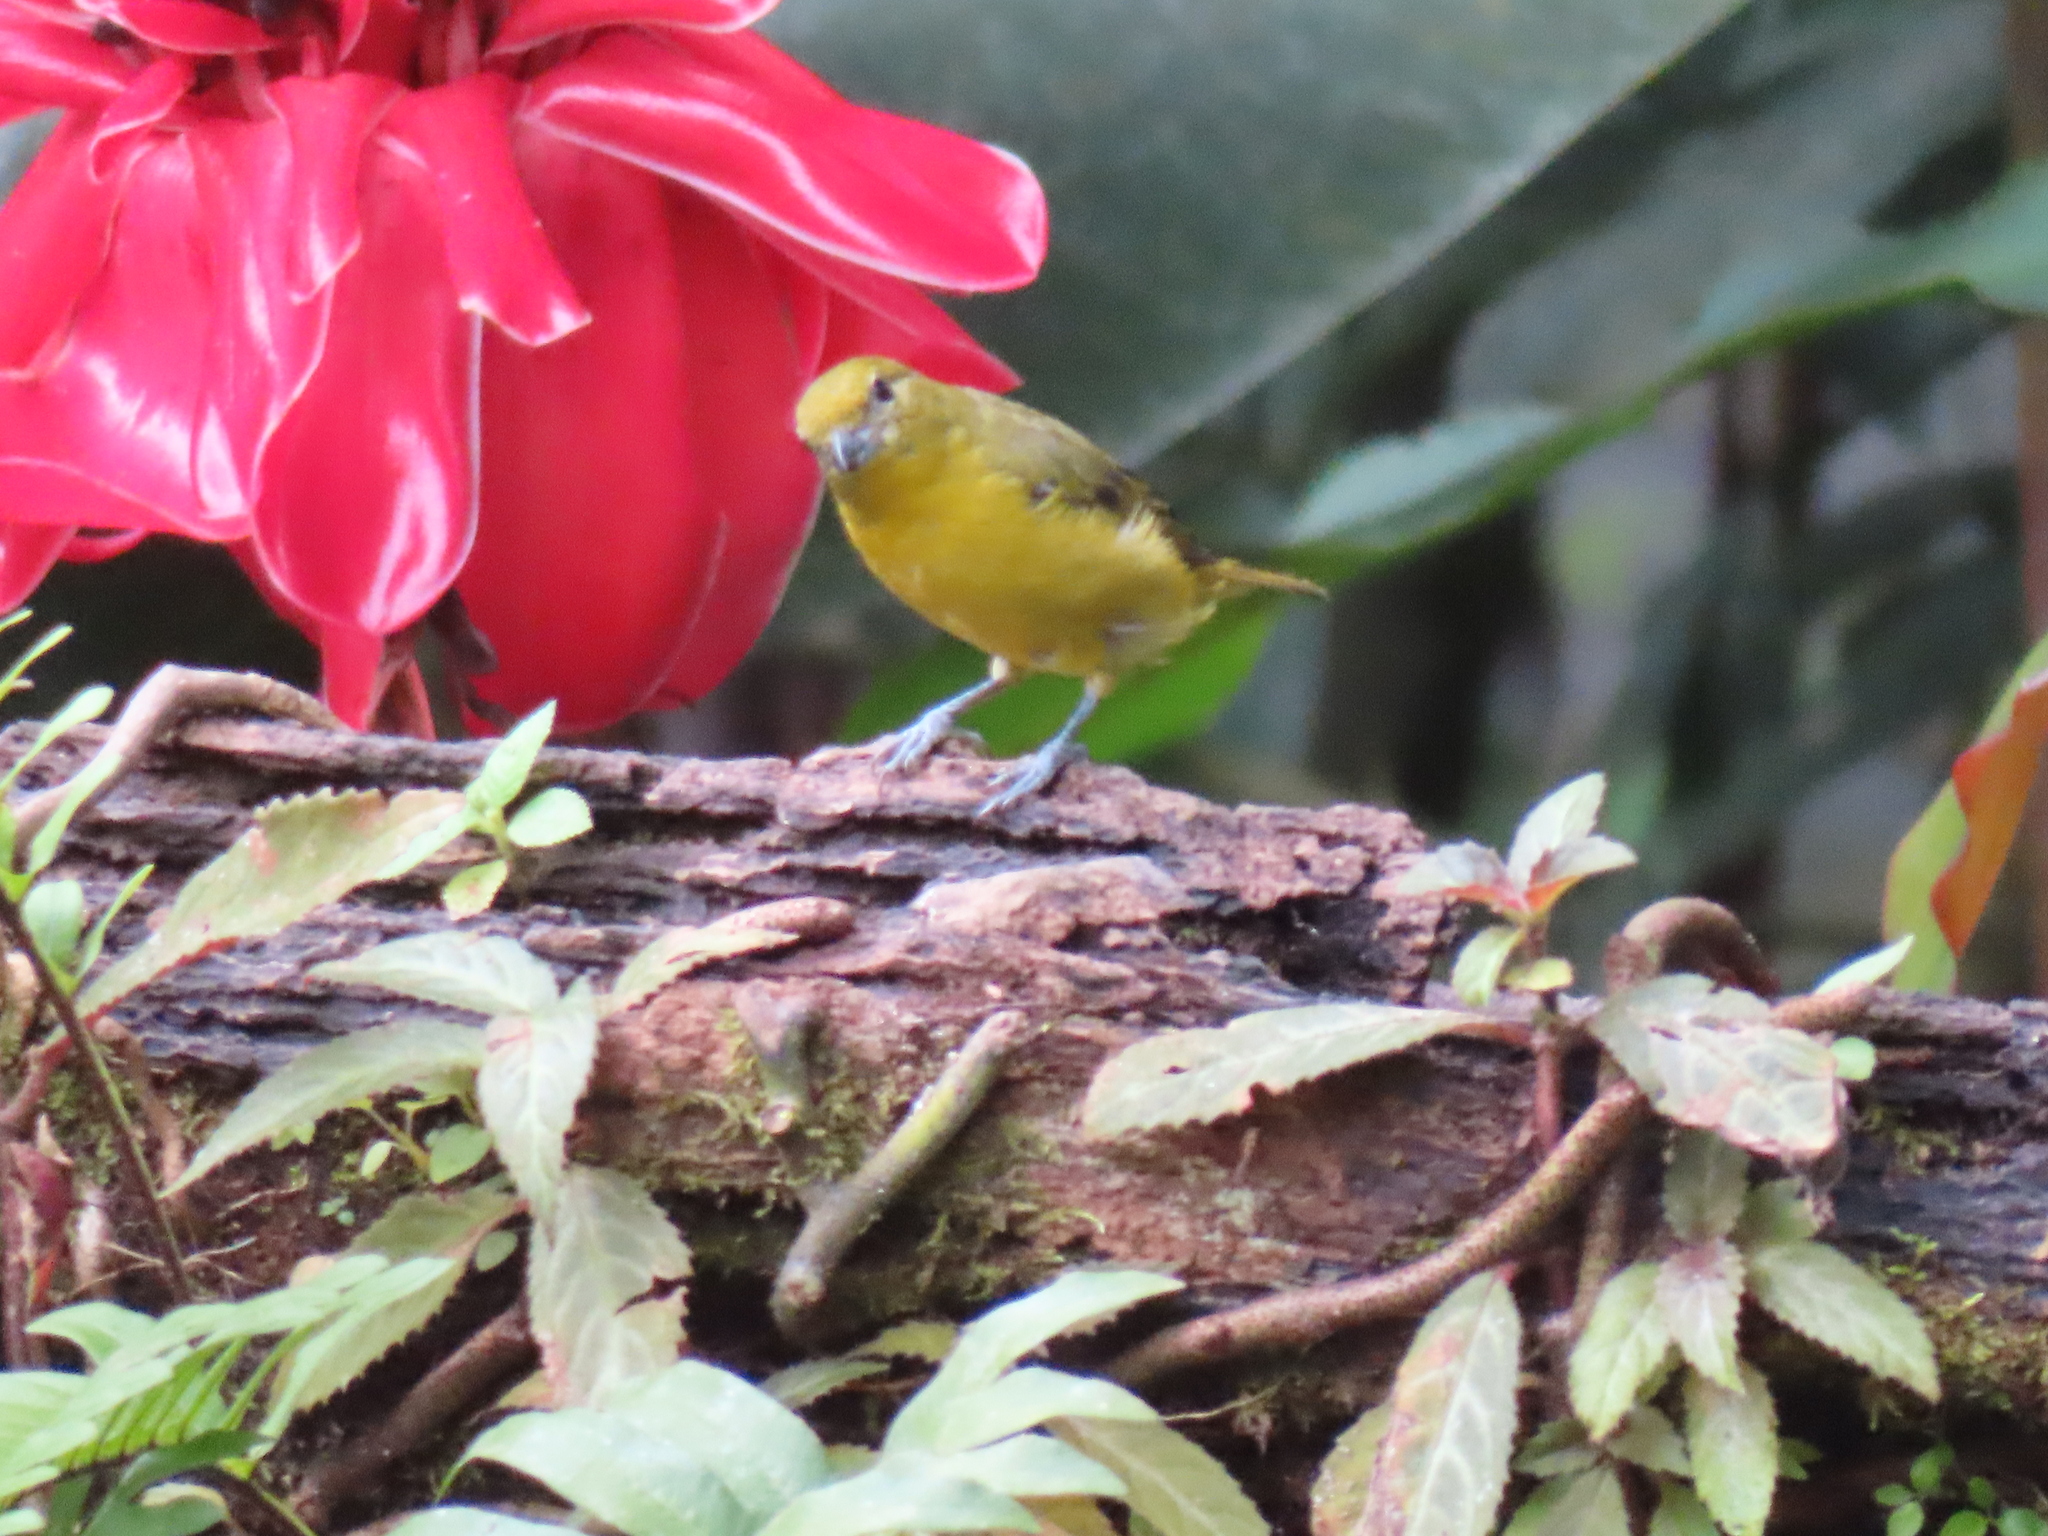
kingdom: Animalia
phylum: Chordata
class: Aves
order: Passeriformes
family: Fringillidae
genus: Euphonia
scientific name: Euphonia laniirostris
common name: Thick-billed euphonia
